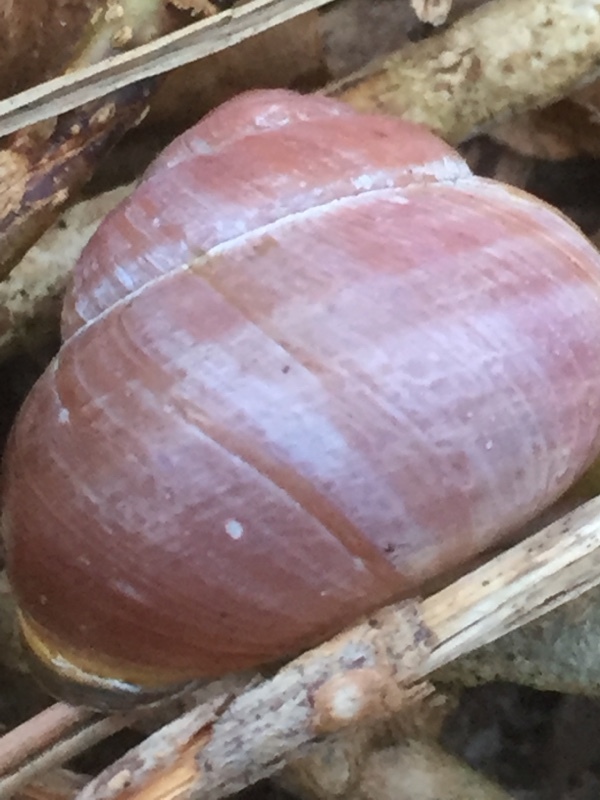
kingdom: Animalia
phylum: Mollusca
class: Gastropoda
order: Stylommatophora
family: Helicidae
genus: Cepaea
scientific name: Cepaea nemoralis
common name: Grovesnail
